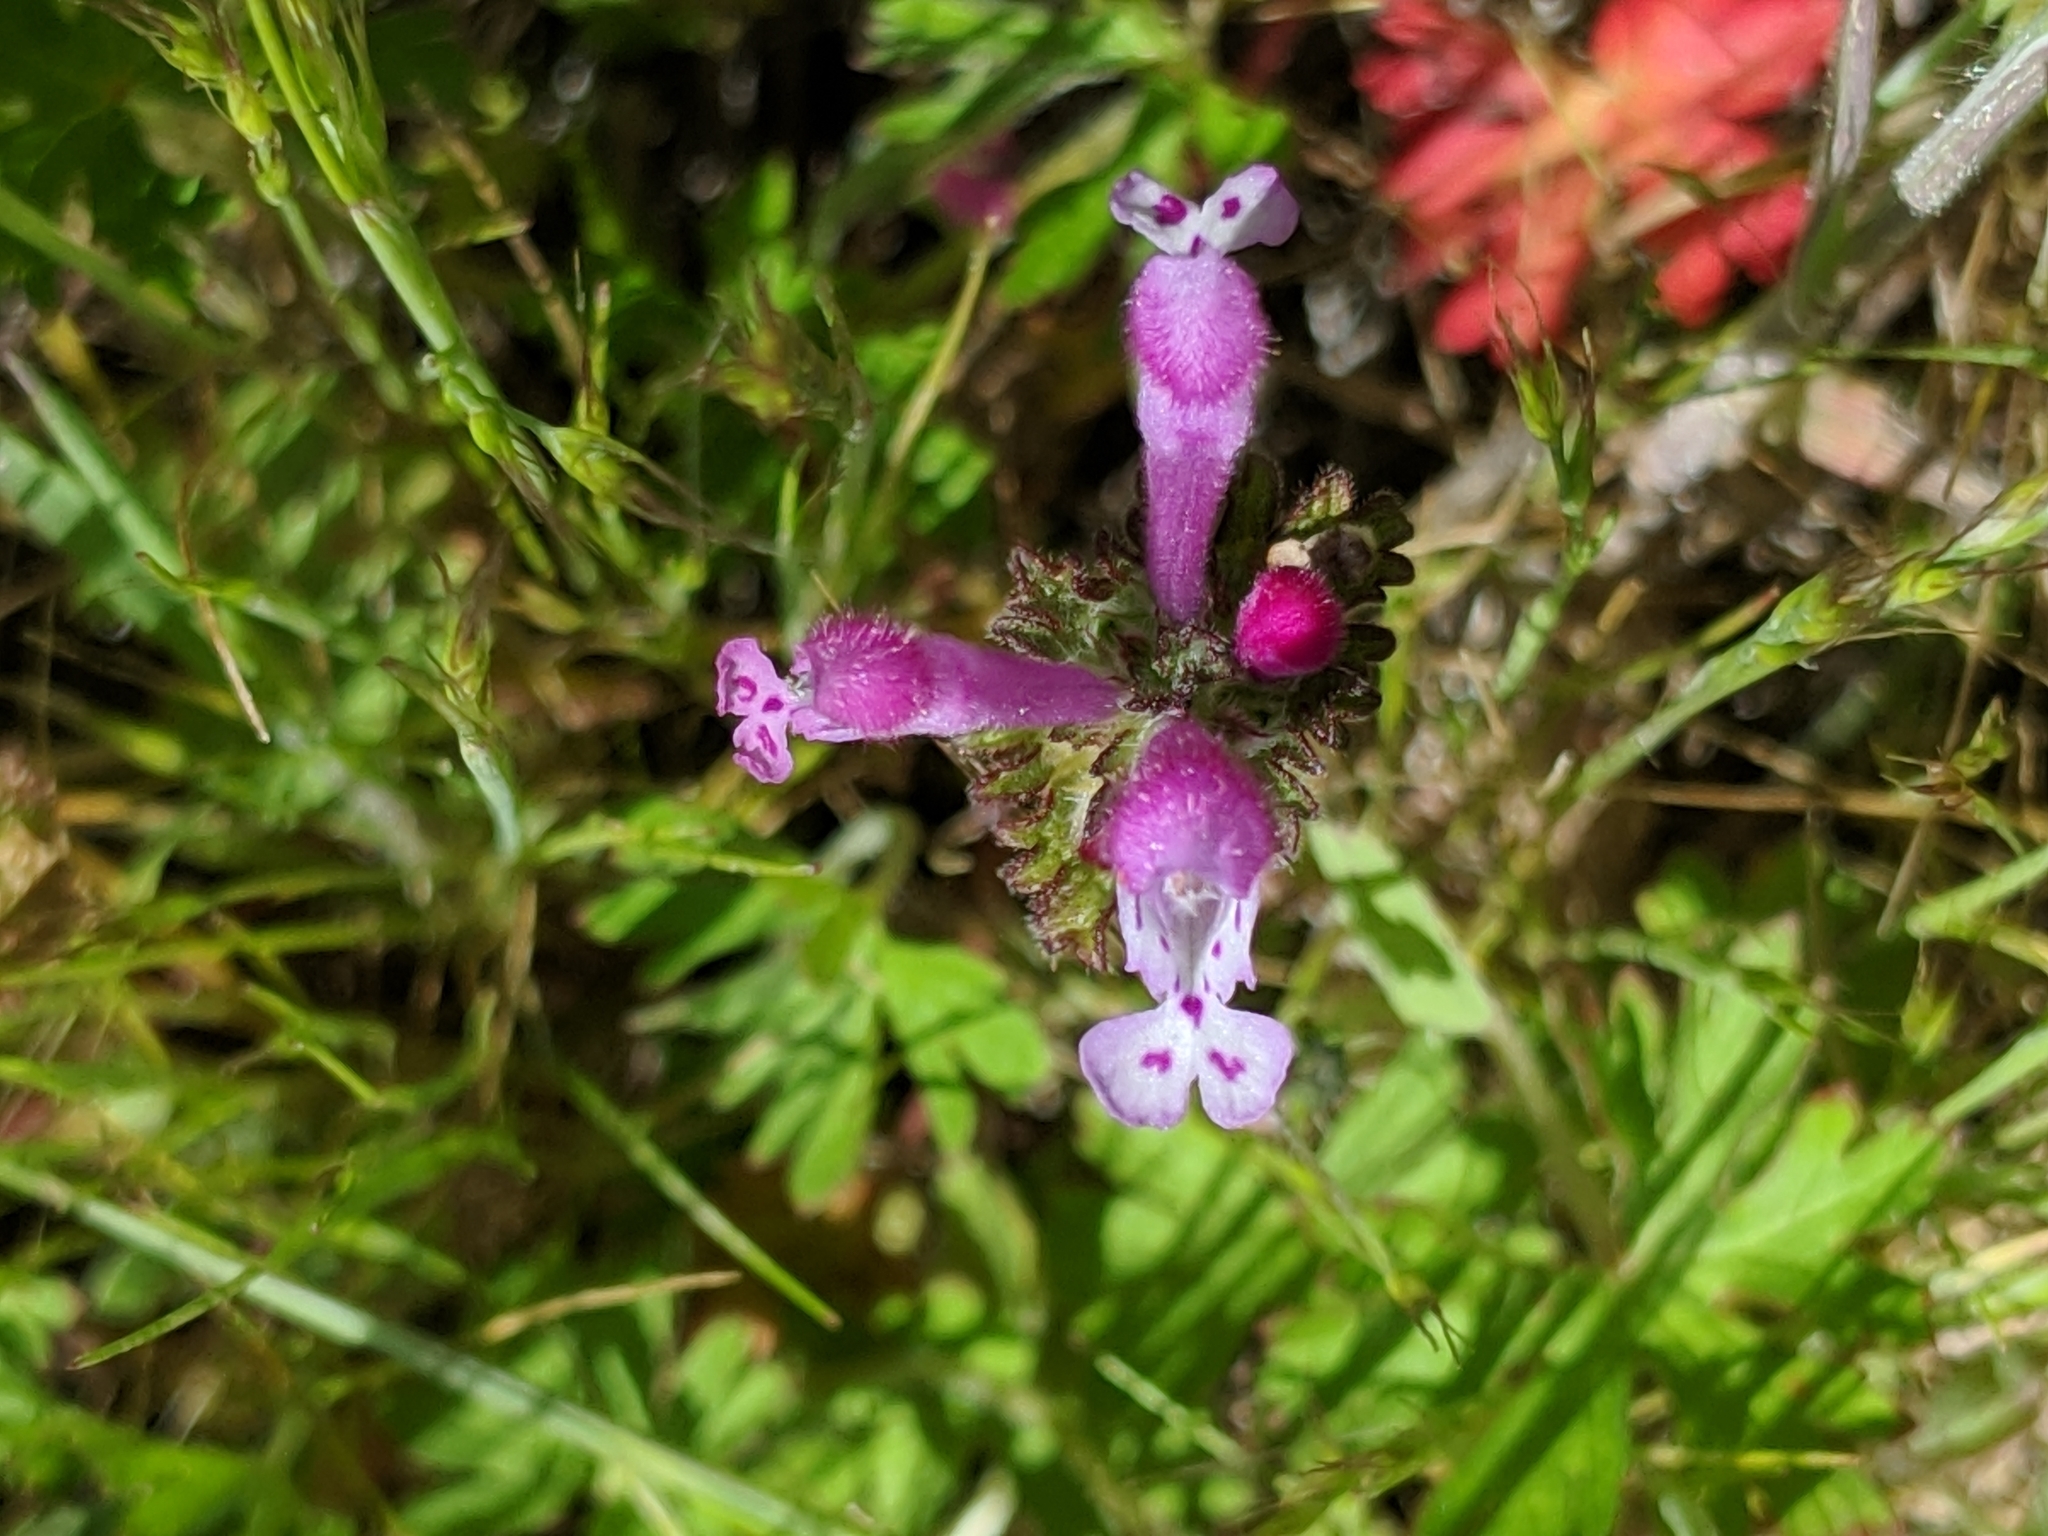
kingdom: Plantae
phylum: Tracheophyta
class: Magnoliopsida
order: Lamiales
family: Lamiaceae
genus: Lamium
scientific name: Lamium amplexicaule
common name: Henbit dead-nettle
